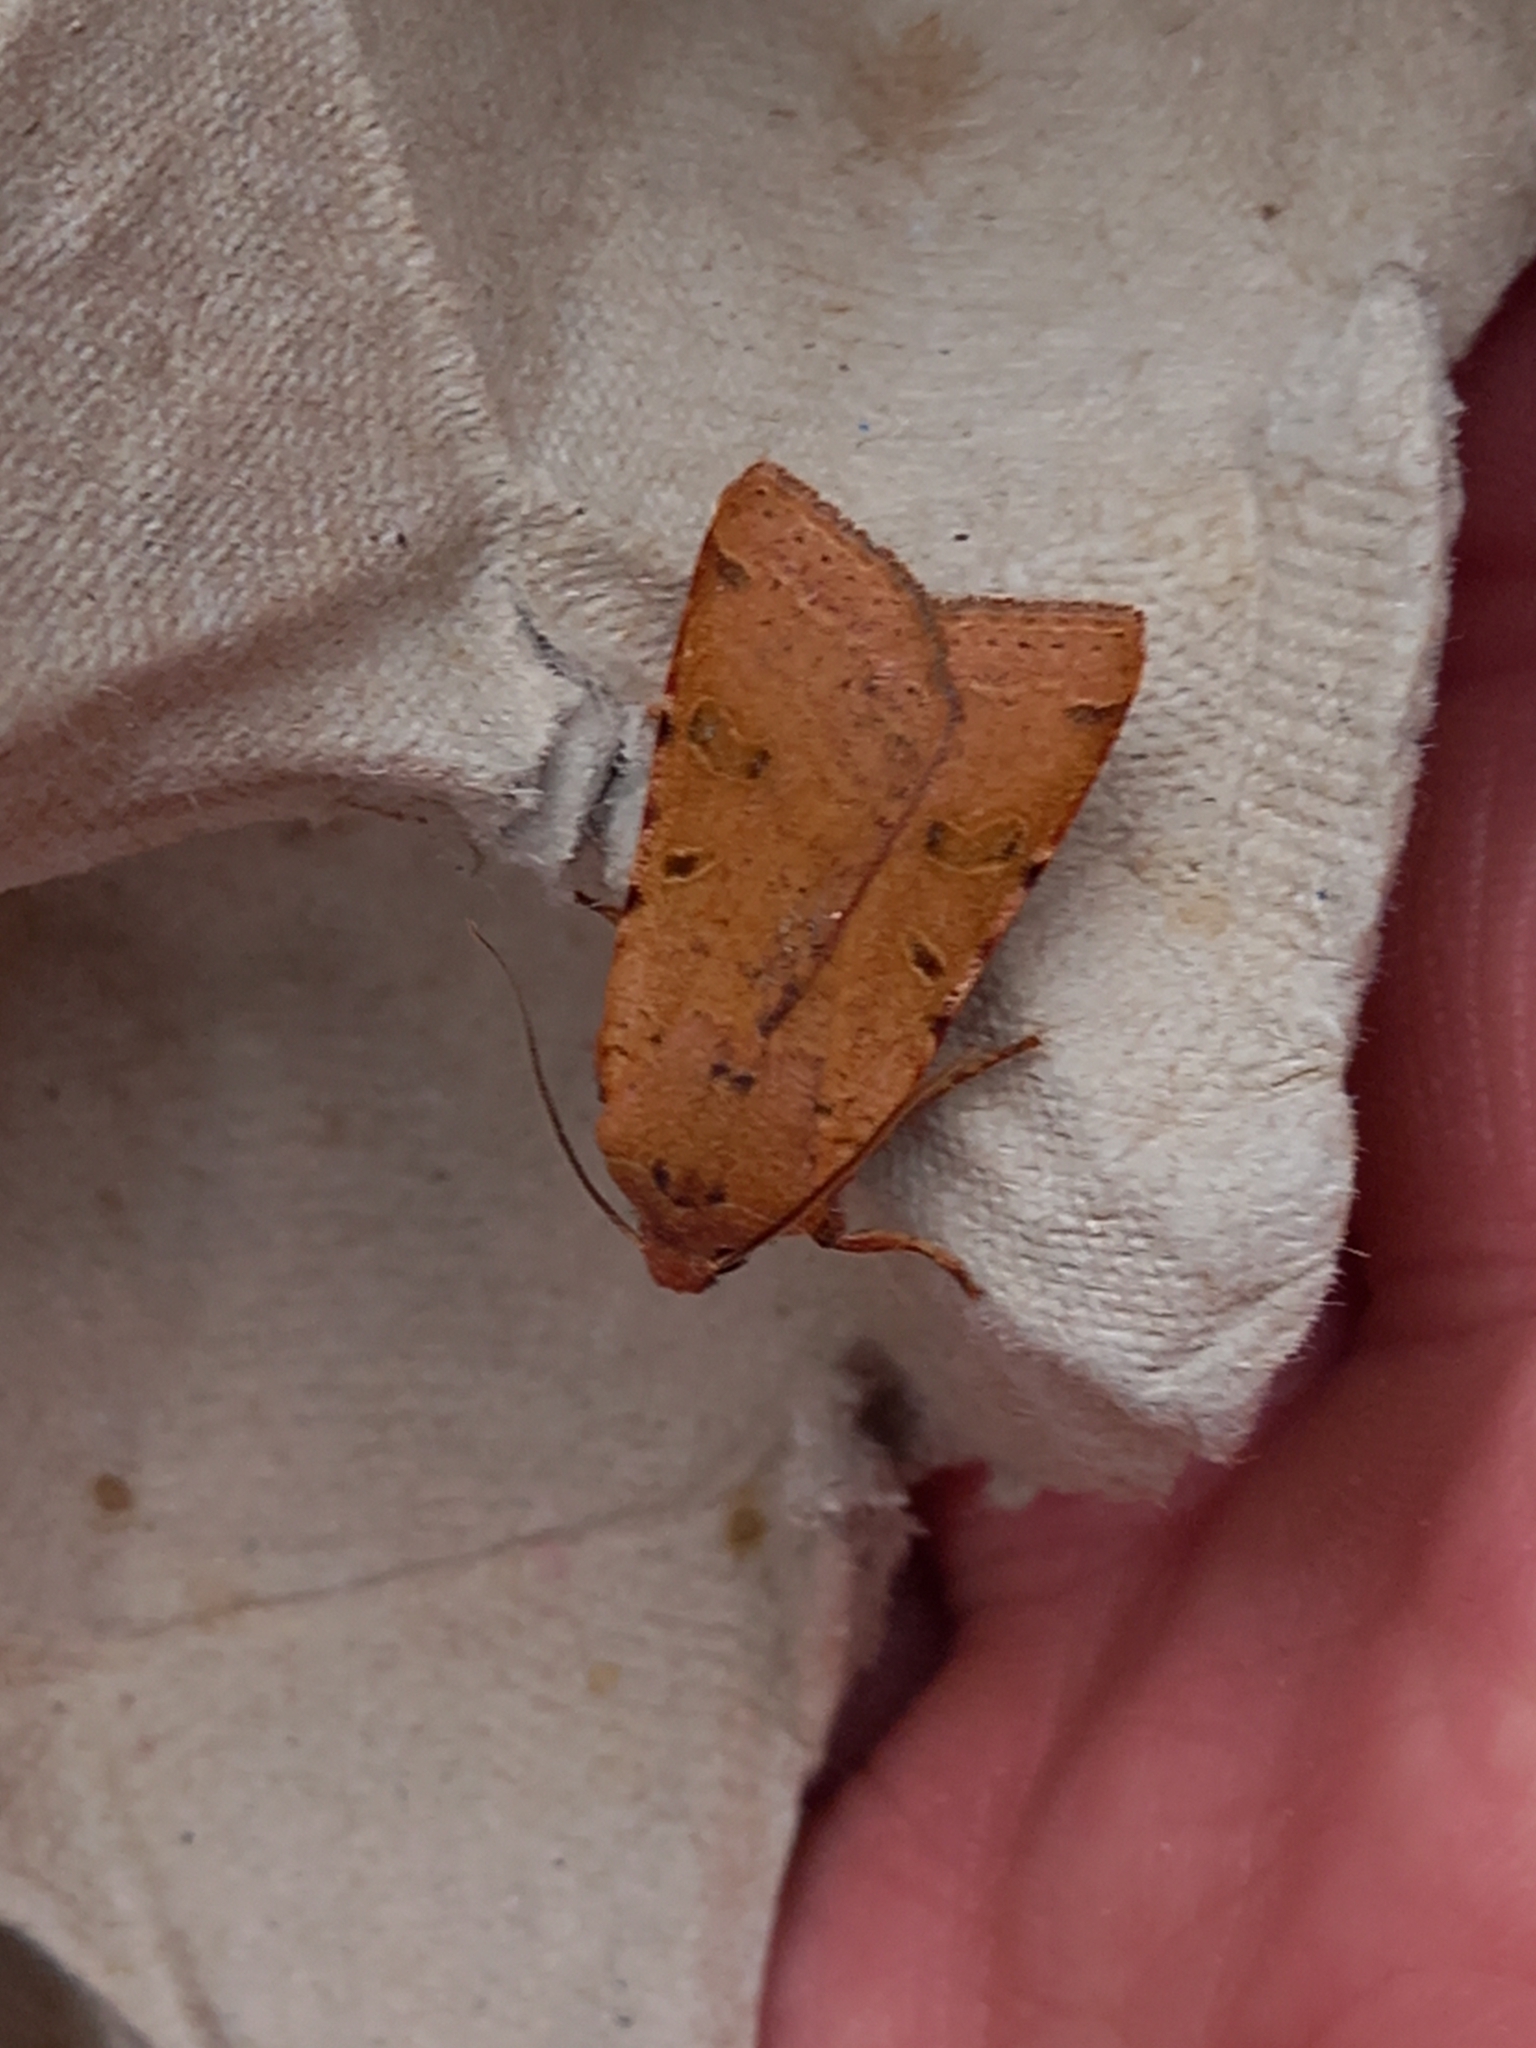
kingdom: Animalia
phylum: Arthropoda
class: Insecta
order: Lepidoptera
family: Noctuidae
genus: Agrochola
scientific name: Agrochola lychnidis
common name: Beaded chestnut
